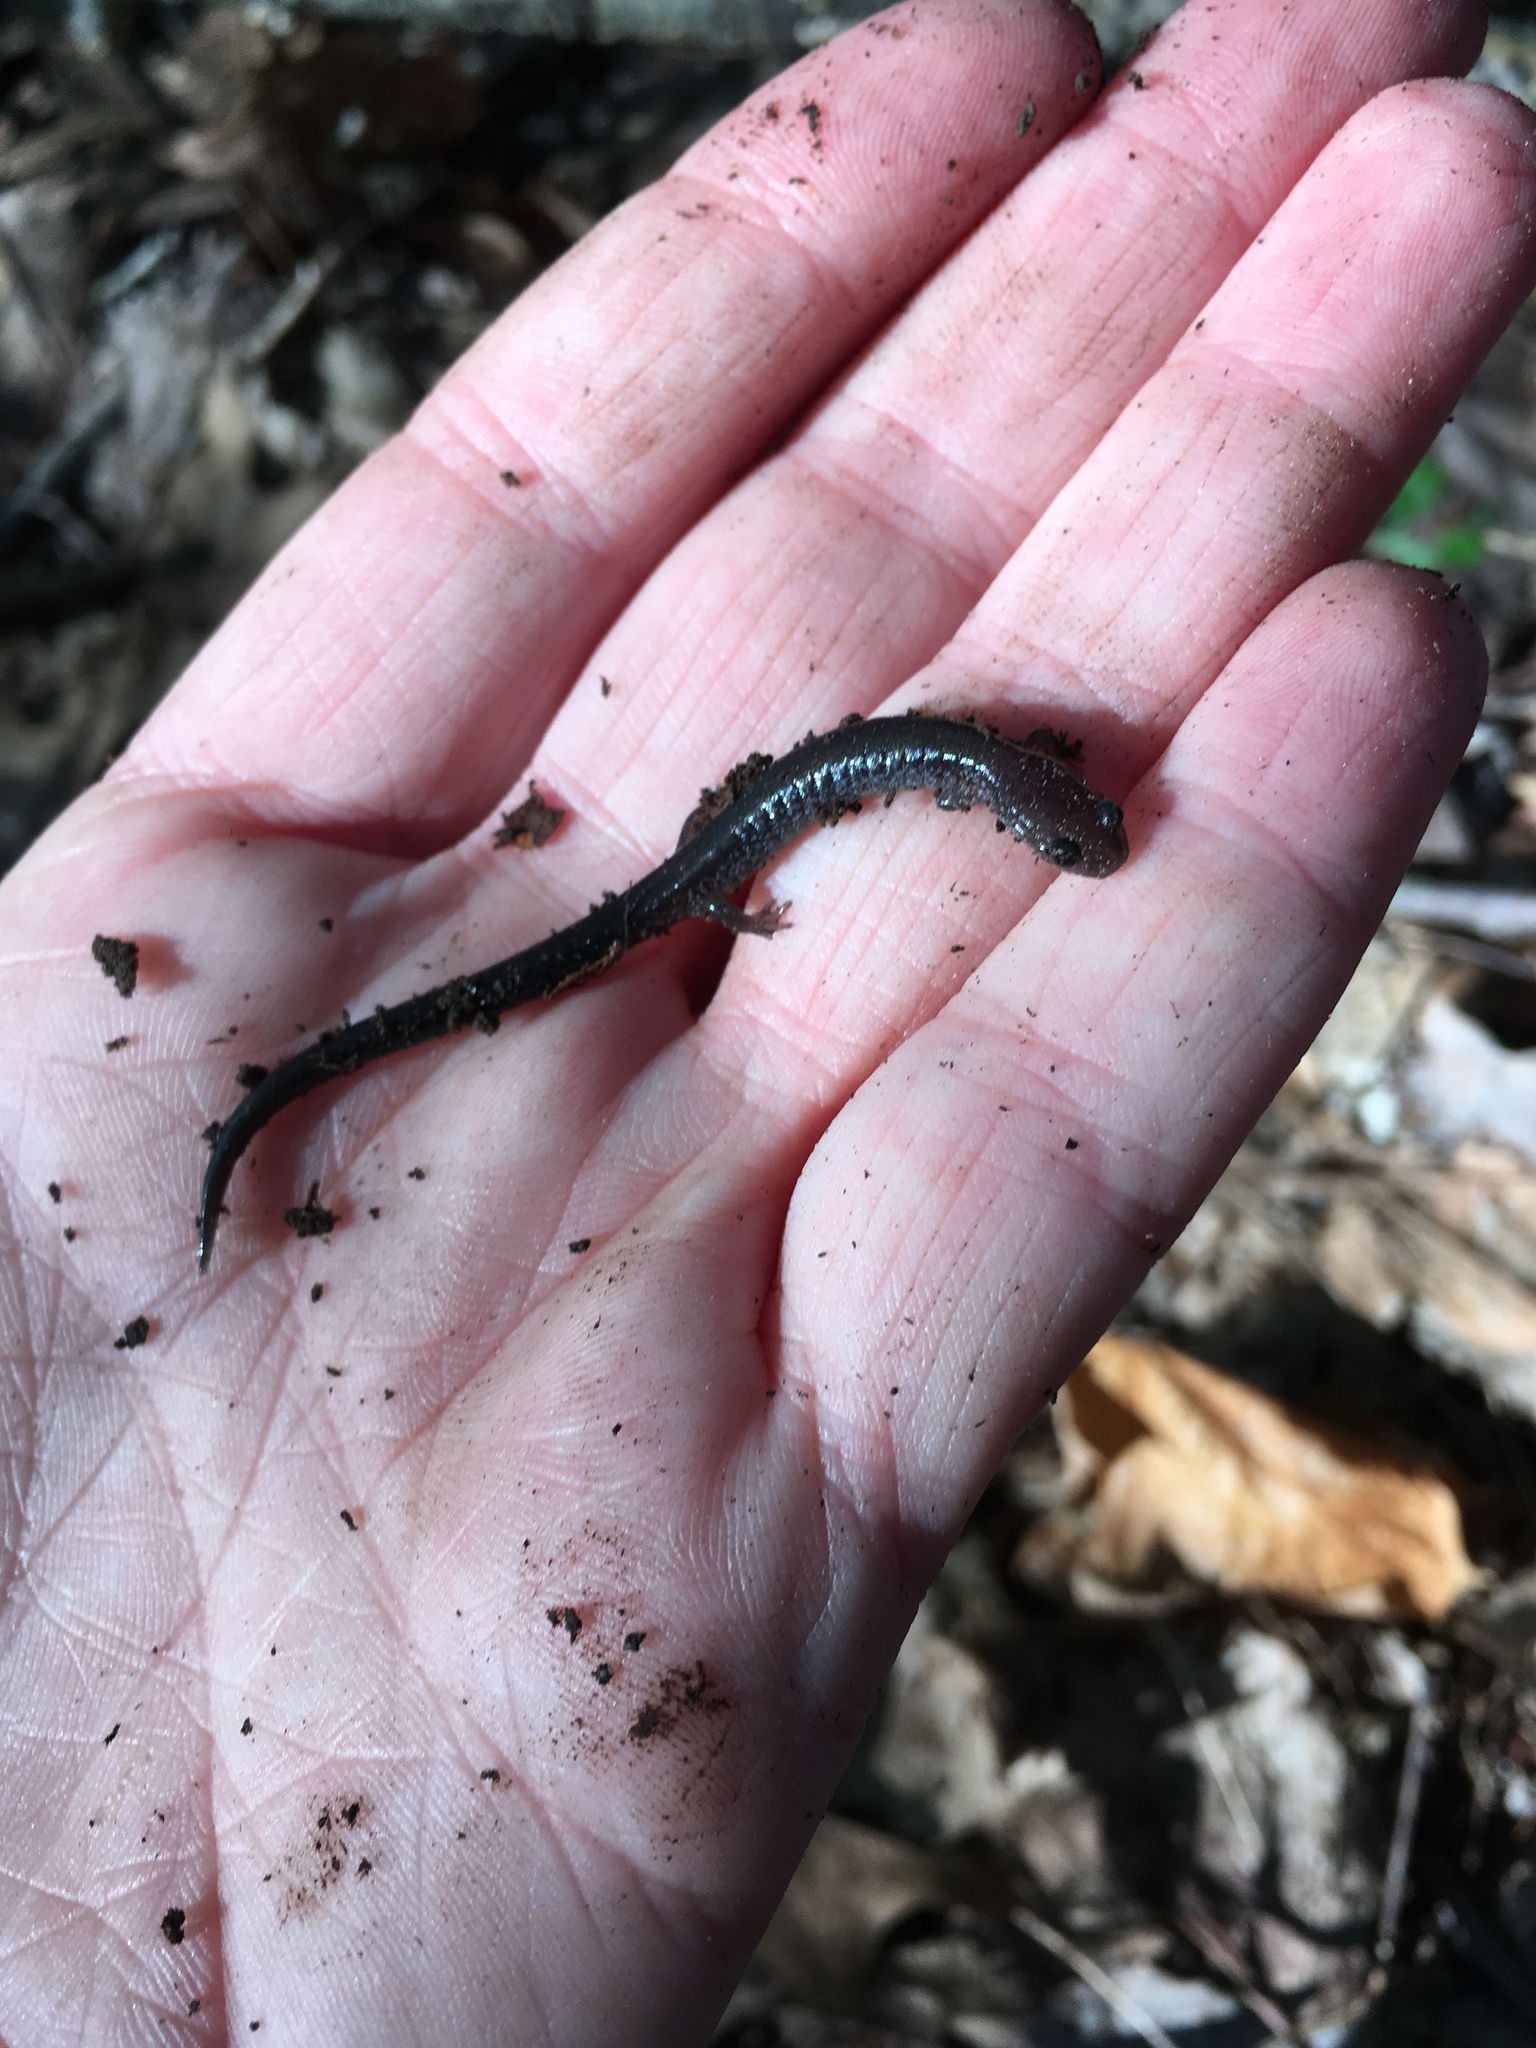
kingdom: Animalia
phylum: Chordata
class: Amphibia
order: Caudata
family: Plethodontidae
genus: Plethodon
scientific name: Plethodon cinereus
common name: Redback salamander
